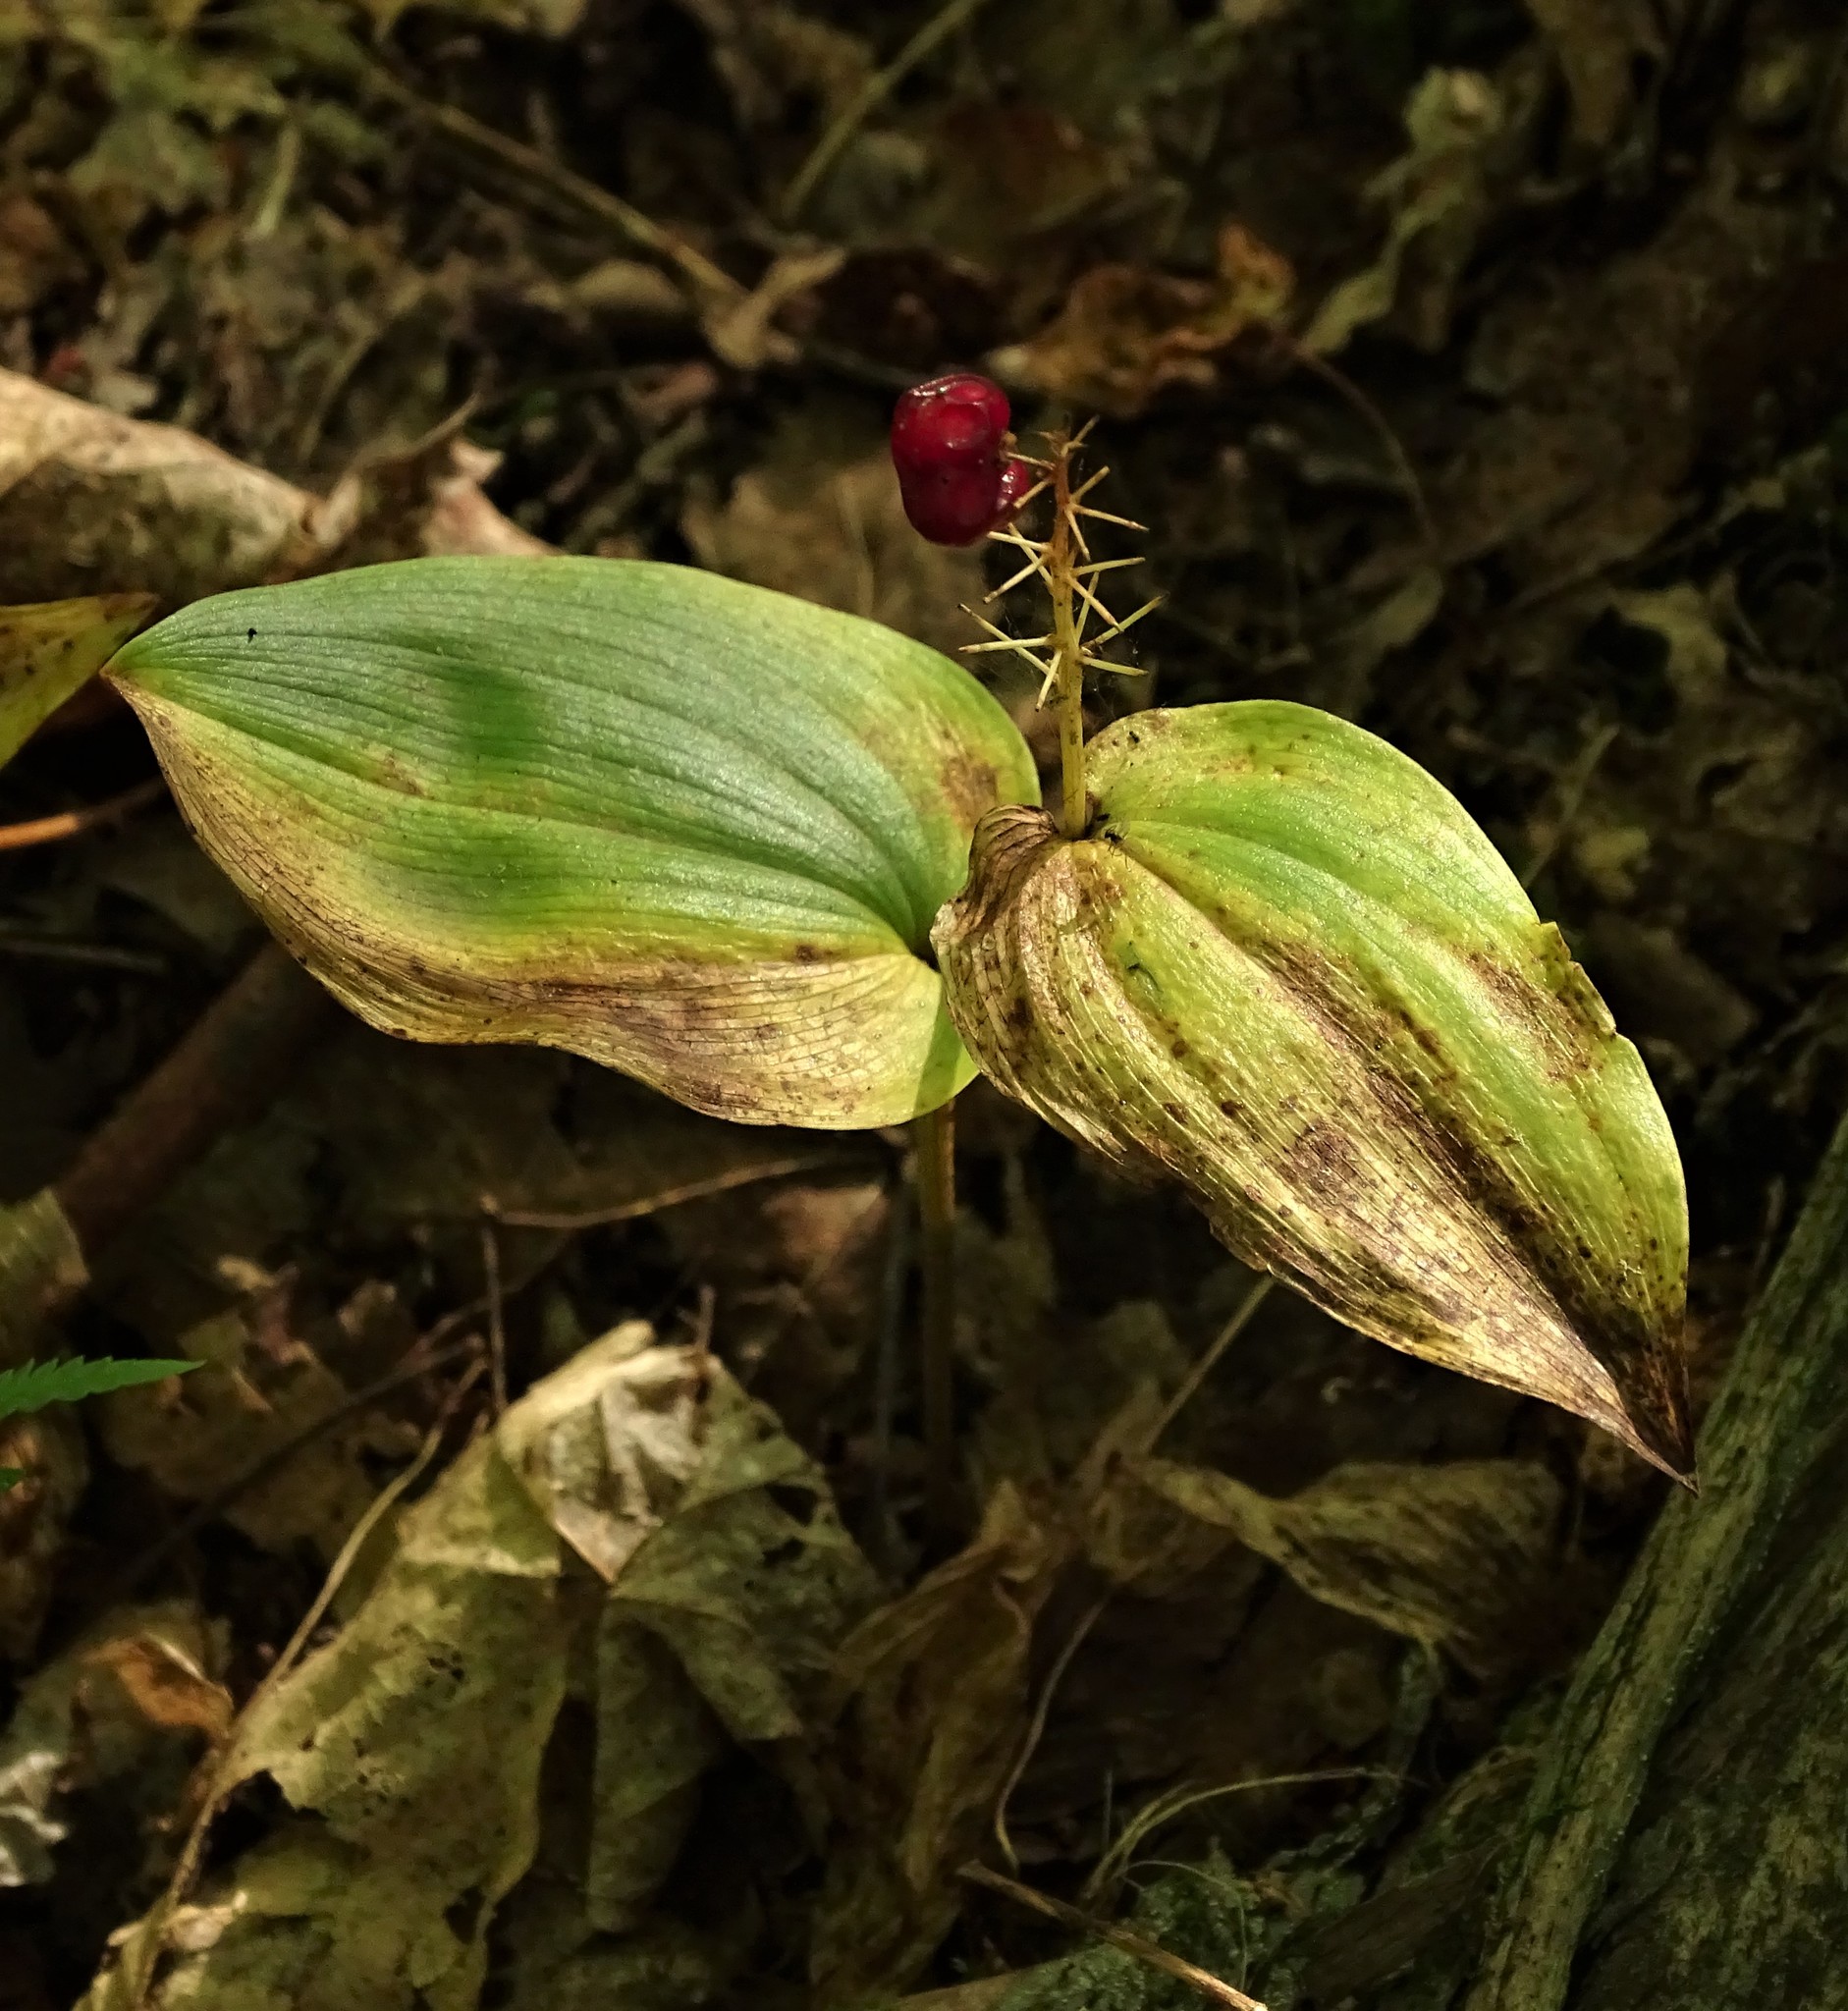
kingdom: Plantae
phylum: Tracheophyta
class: Liliopsida
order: Asparagales
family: Asparagaceae
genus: Maianthemum
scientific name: Maianthemum canadense
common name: False lily-of-the-valley
